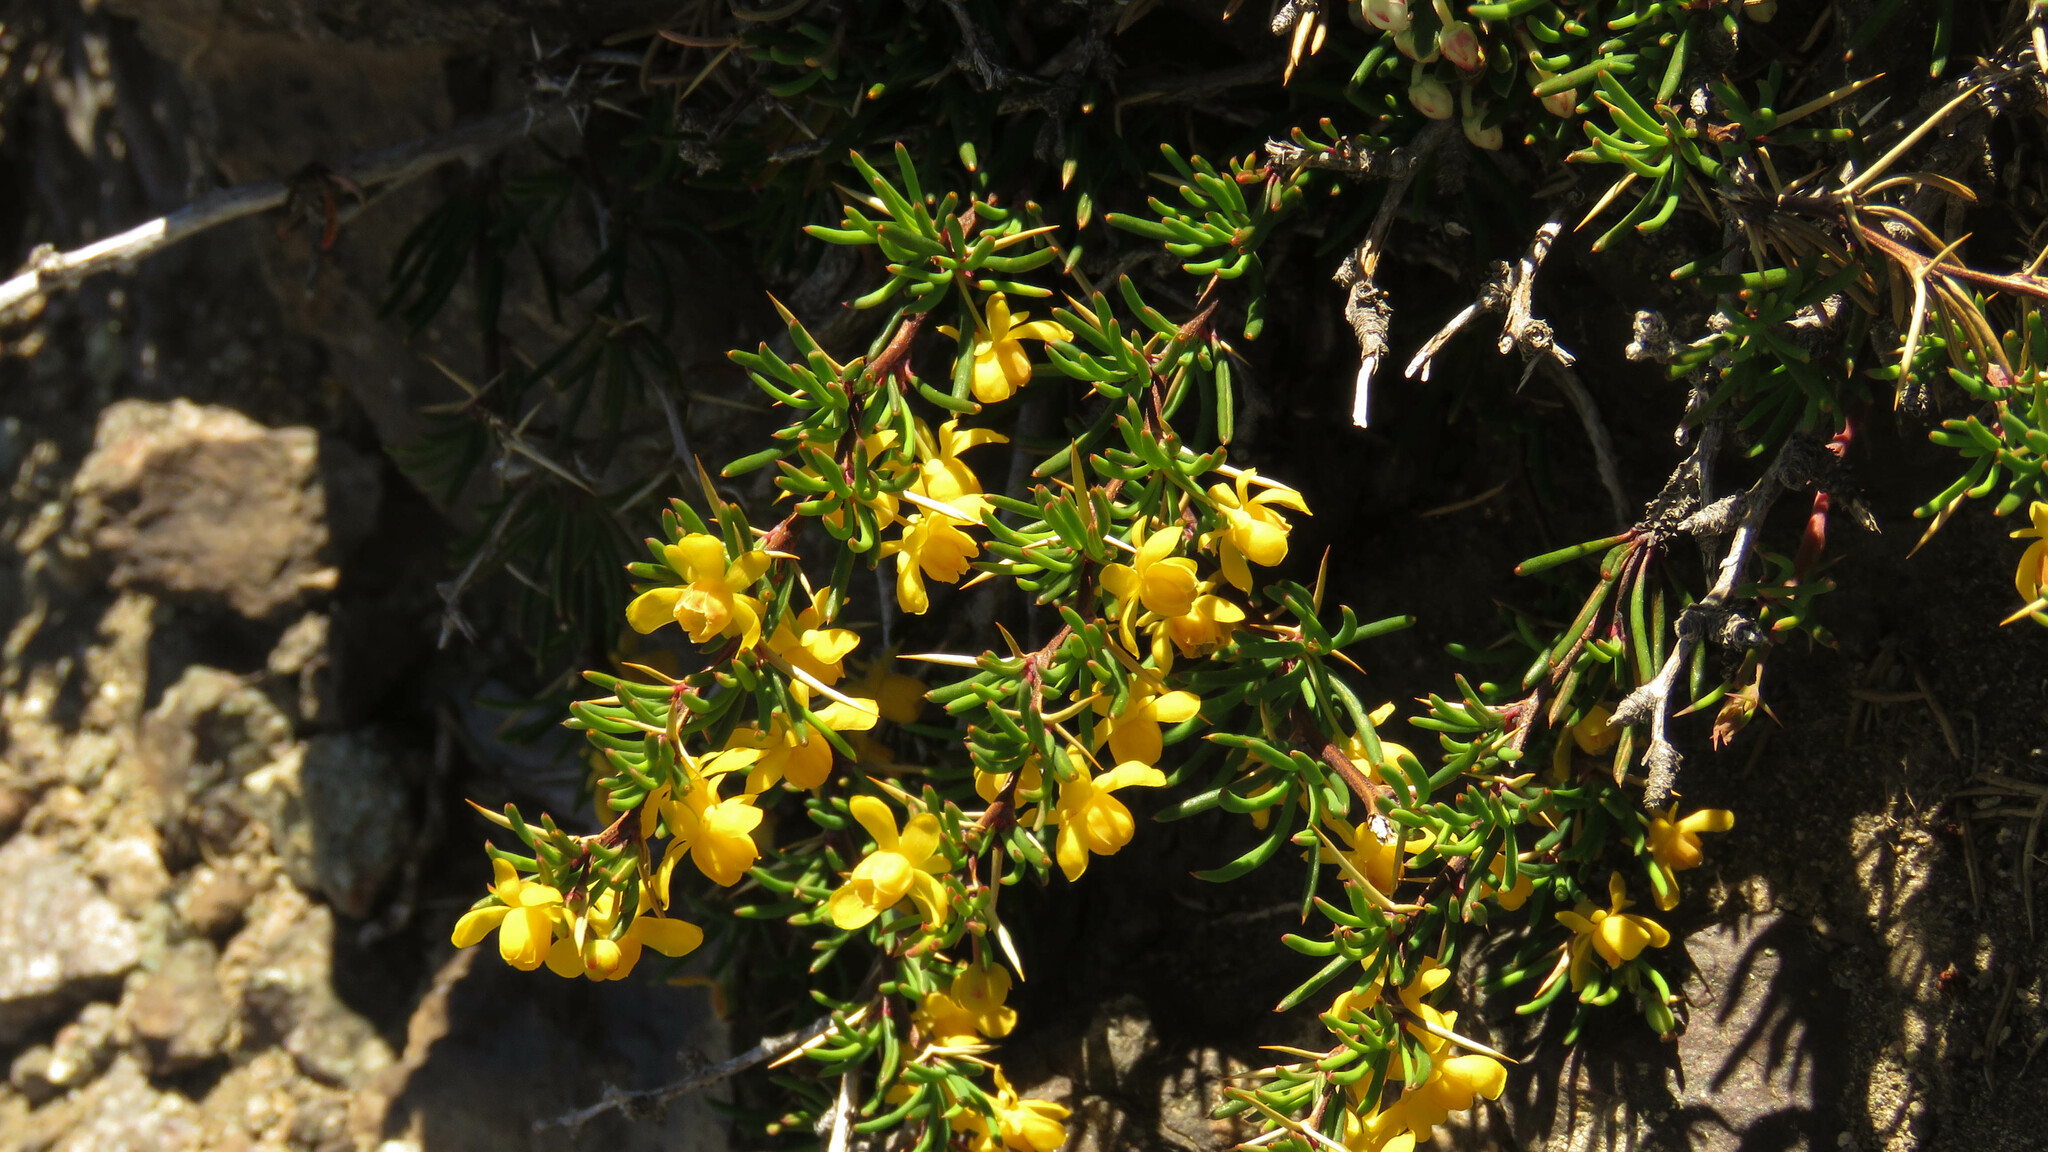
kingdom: Plantae
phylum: Tracheophyta
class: Magnoliopsida
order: Ranunculales
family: Berberidaceae
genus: Berberis
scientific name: Berberis empetrifolia
